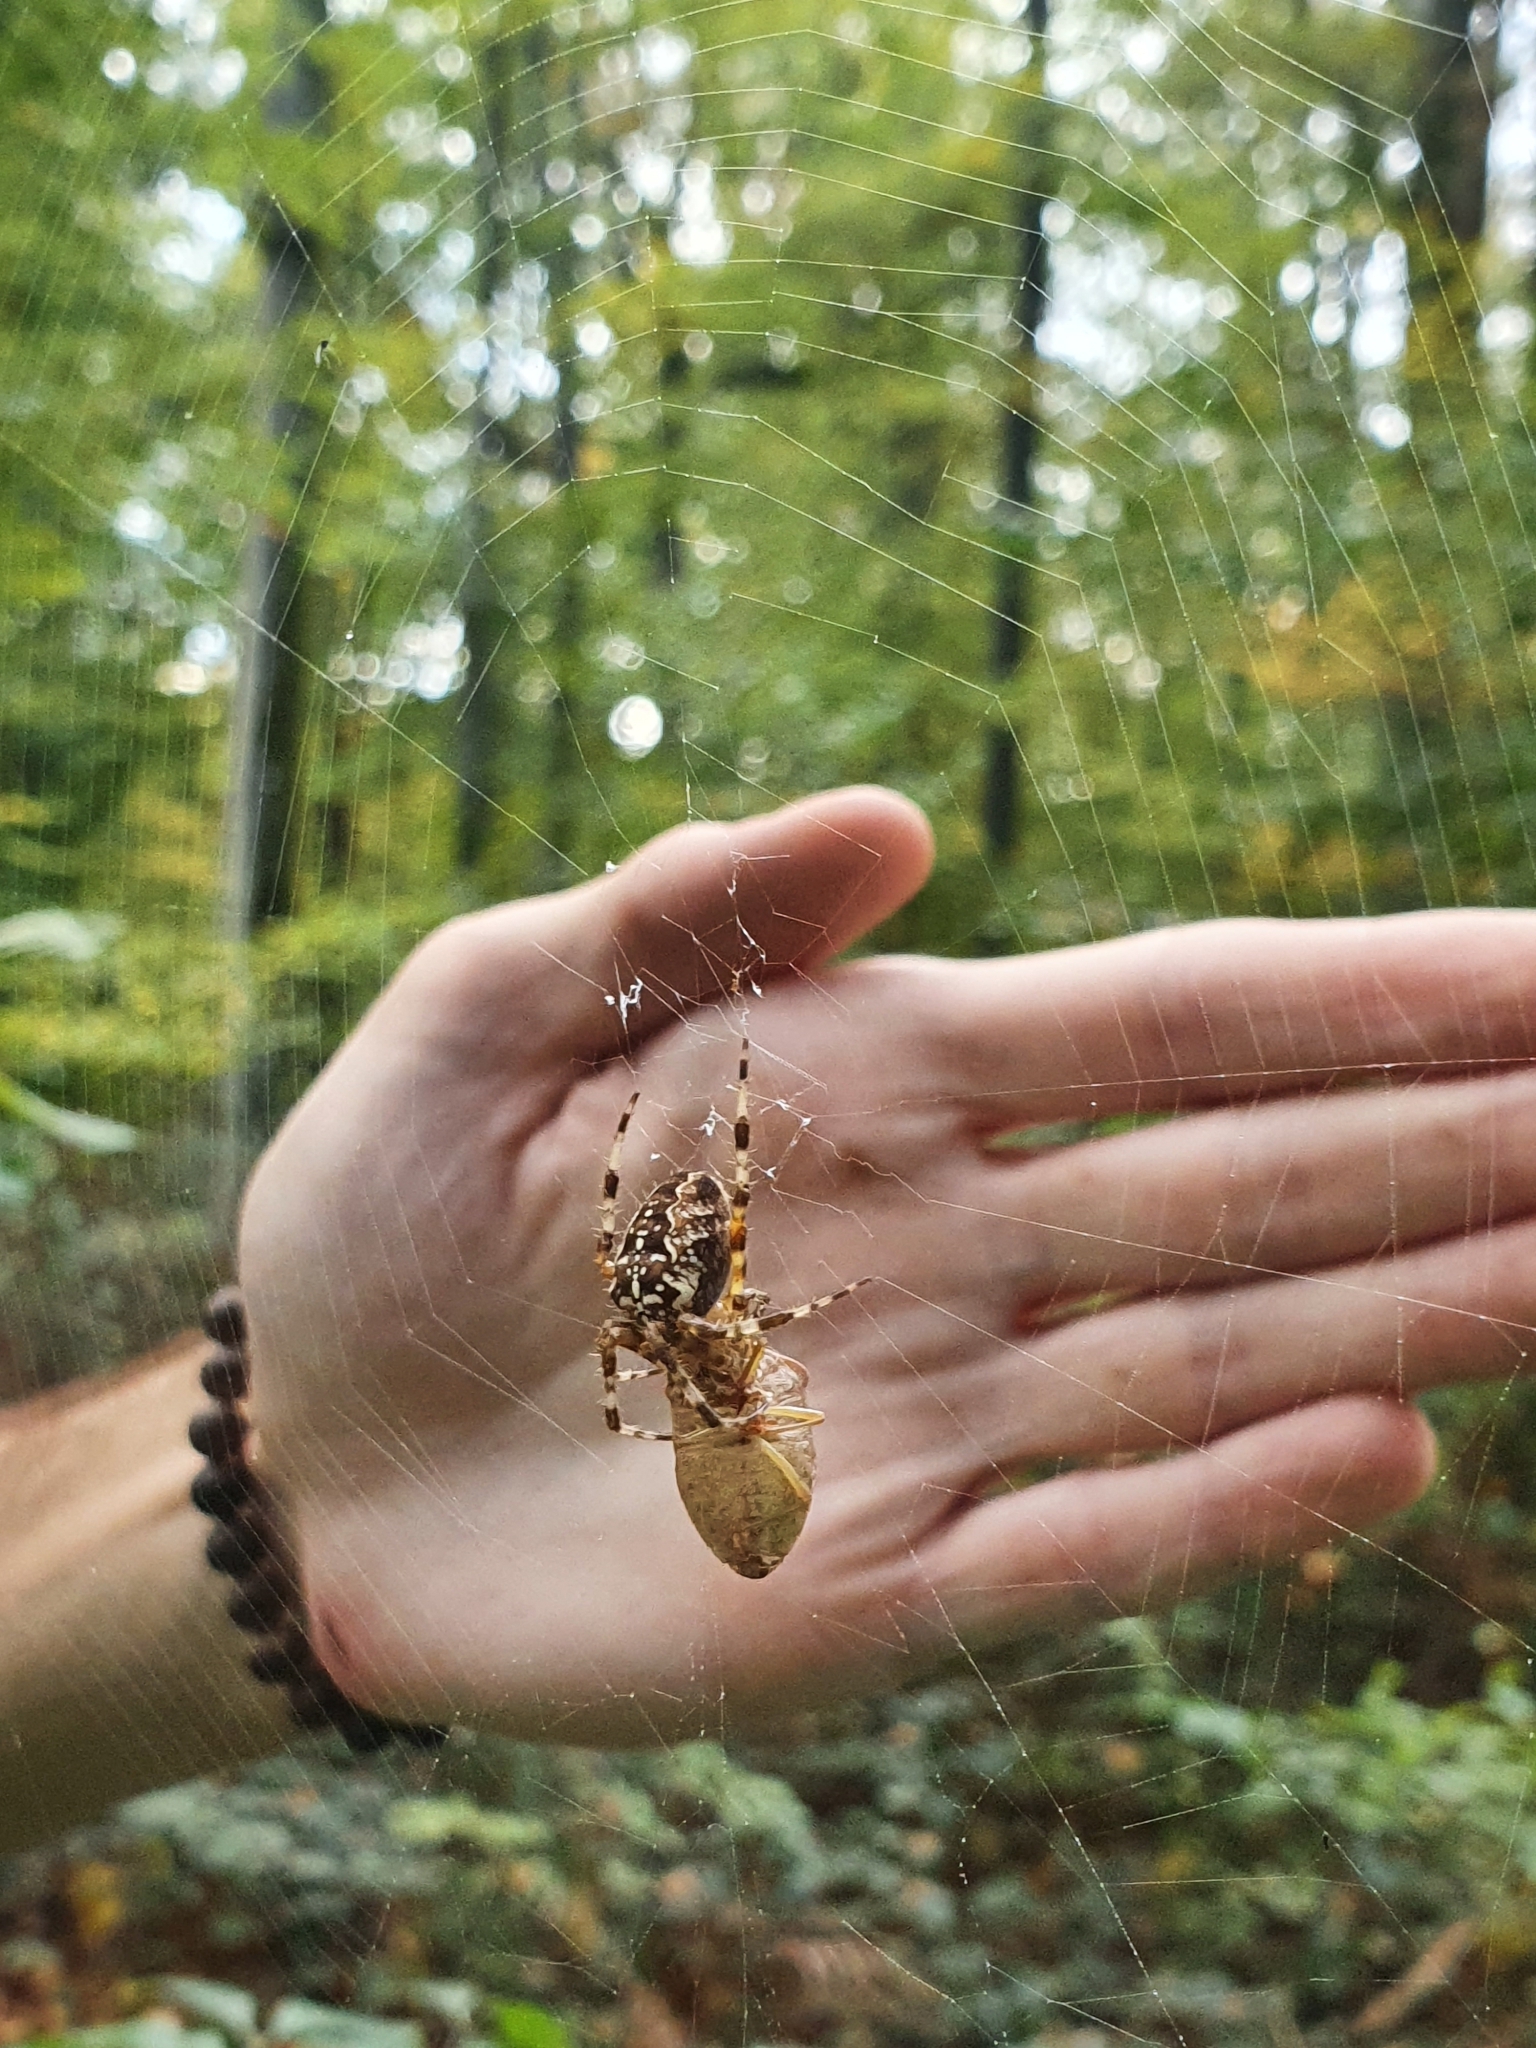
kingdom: Animalia
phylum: Arthropoda
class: Arachnida
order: Araneae
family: Araneidae
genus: Araneus
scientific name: Araneus diadematus
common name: Cross orbweaver
